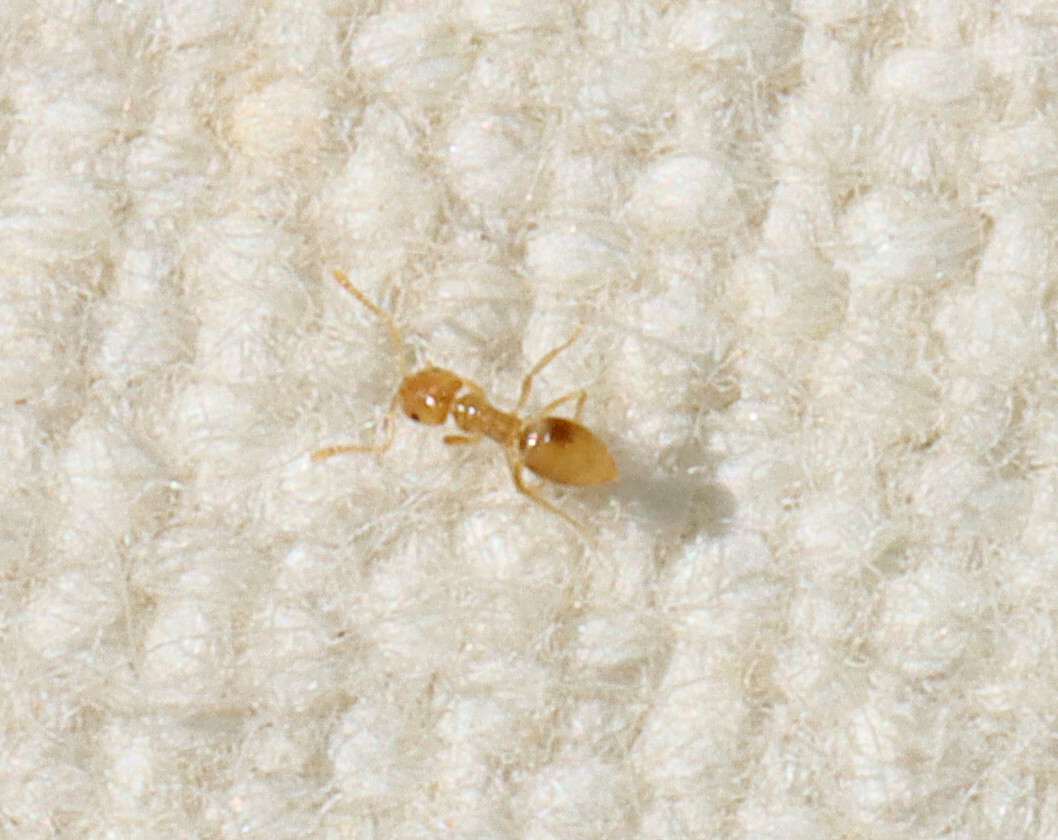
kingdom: Animalia
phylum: Arthropoda
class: Insecta
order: Hymenoptera
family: Formicidae
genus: Brachymyrmex
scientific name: Brachymyrmex depilis
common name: Hairless rover ant
